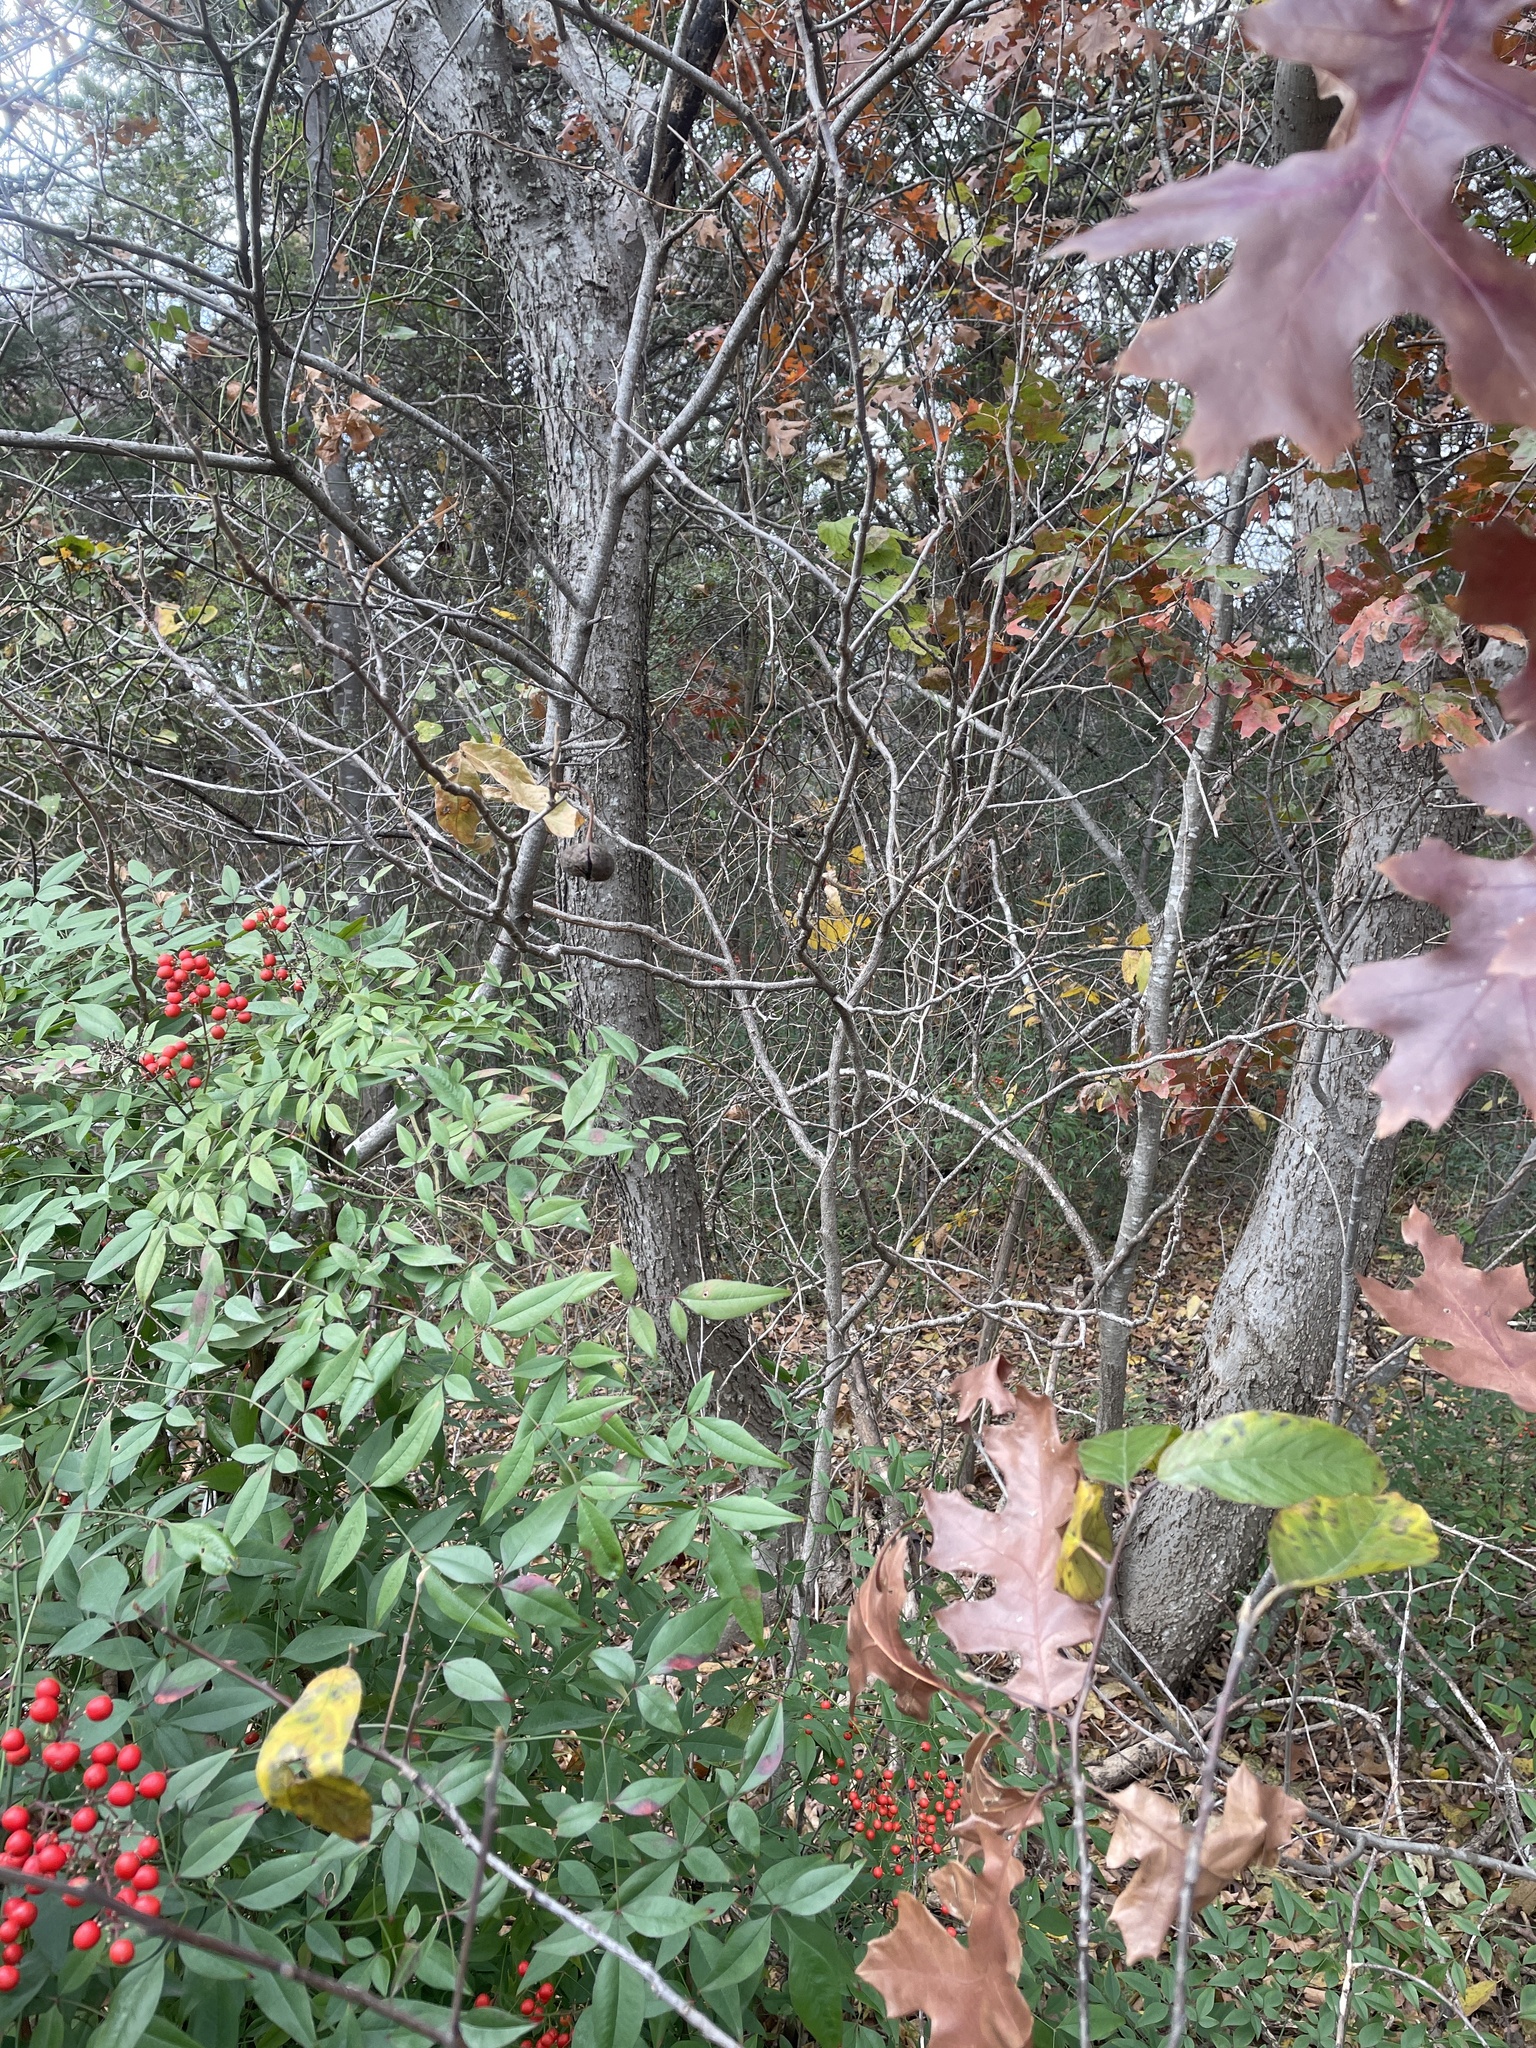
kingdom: Plantae
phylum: Tracheophyta
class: Magnoliopsida
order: Sapindales
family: Sapindaceae
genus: Ungnadia
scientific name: Ungnadia speciosa
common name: Texas-buckeye
